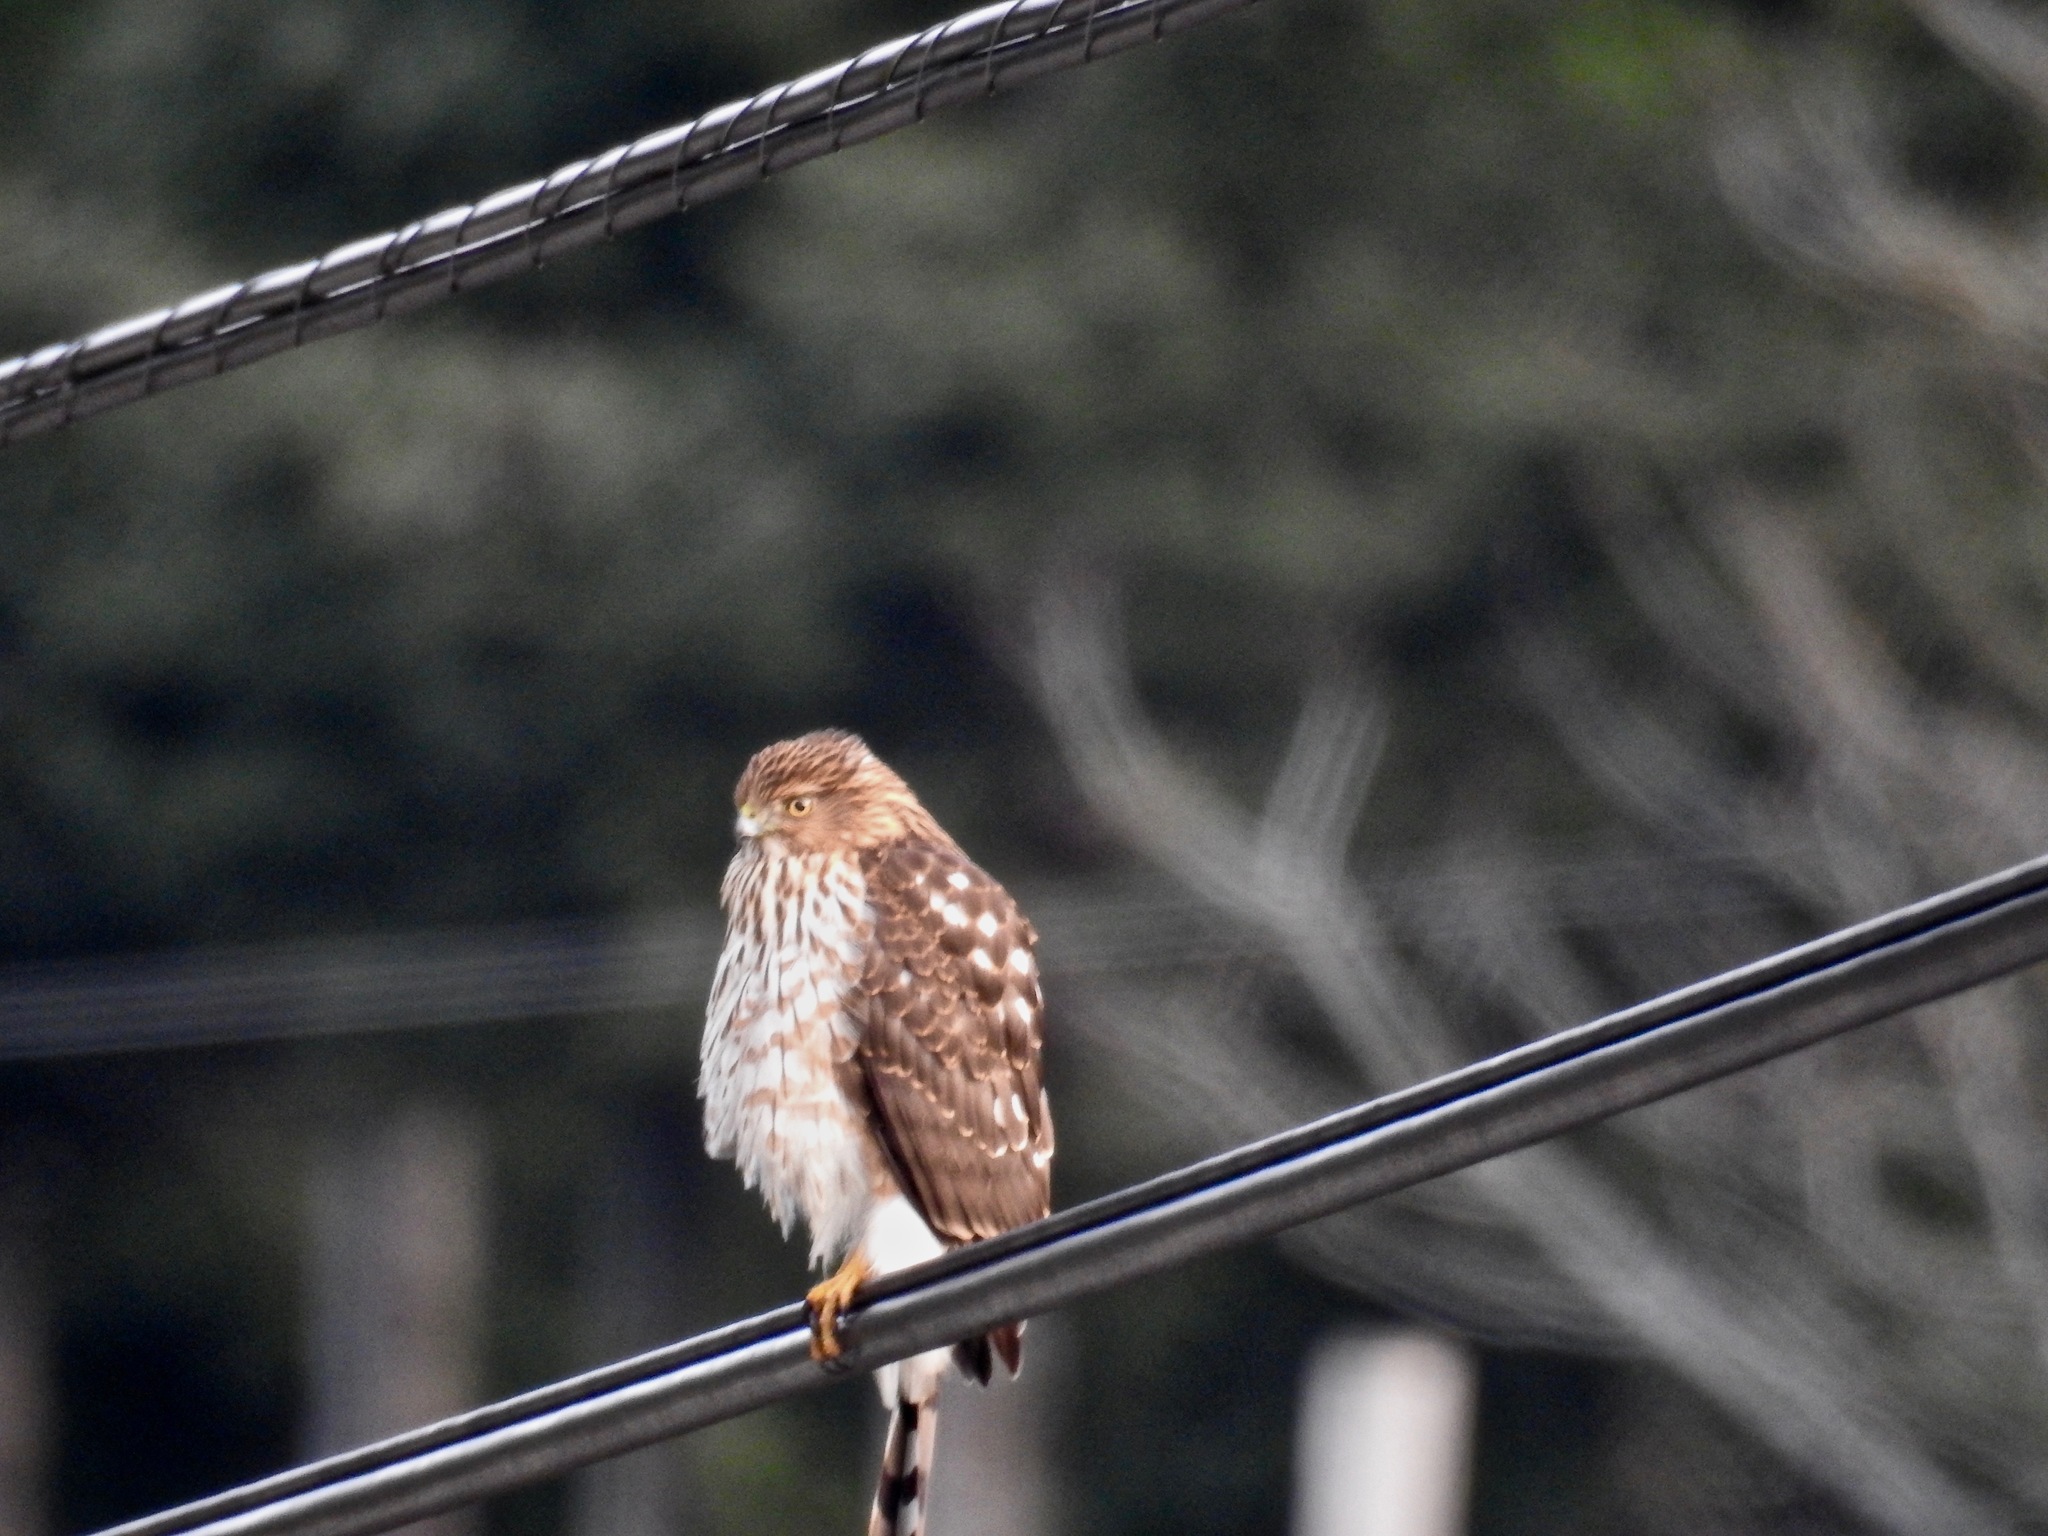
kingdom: Animalia
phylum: Chordata
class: Aves
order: Accipitriformes
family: Accipitridae
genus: Accipiter
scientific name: Accipiter cooperii
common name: Cooper's hawk
